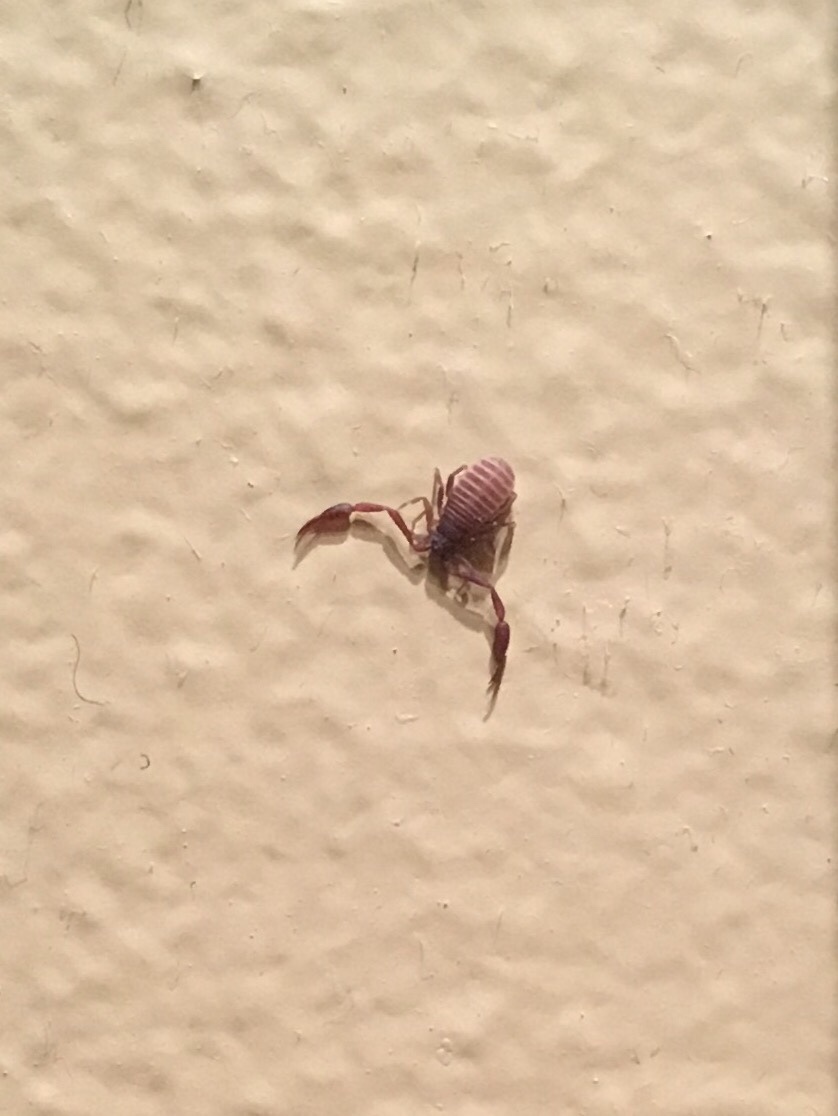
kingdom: Animalia
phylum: Arthropoda
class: Arachnida
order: Pseudoscorpiones
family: Cheliferidae
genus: Chelifer
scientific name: Chelifer cancroides
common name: House false-scorpion
